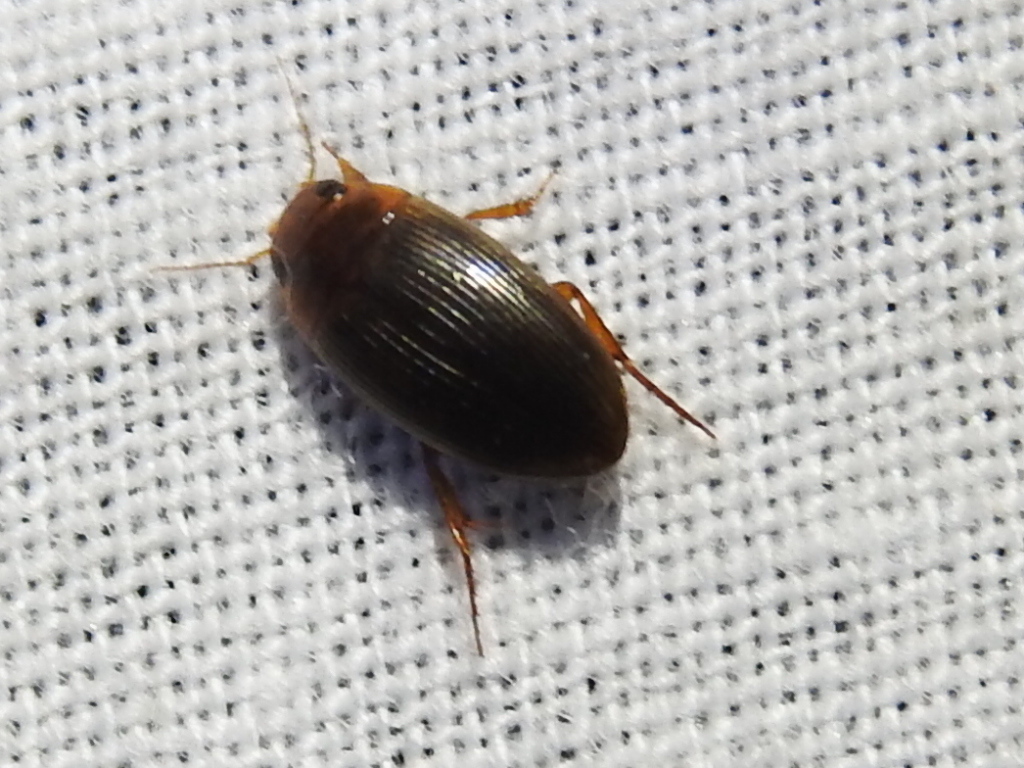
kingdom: Animalia
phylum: Arthropoda
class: Insecta
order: Coleoptera
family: Dytiscidae
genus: Copelatus
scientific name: Copelatus glyphicus
